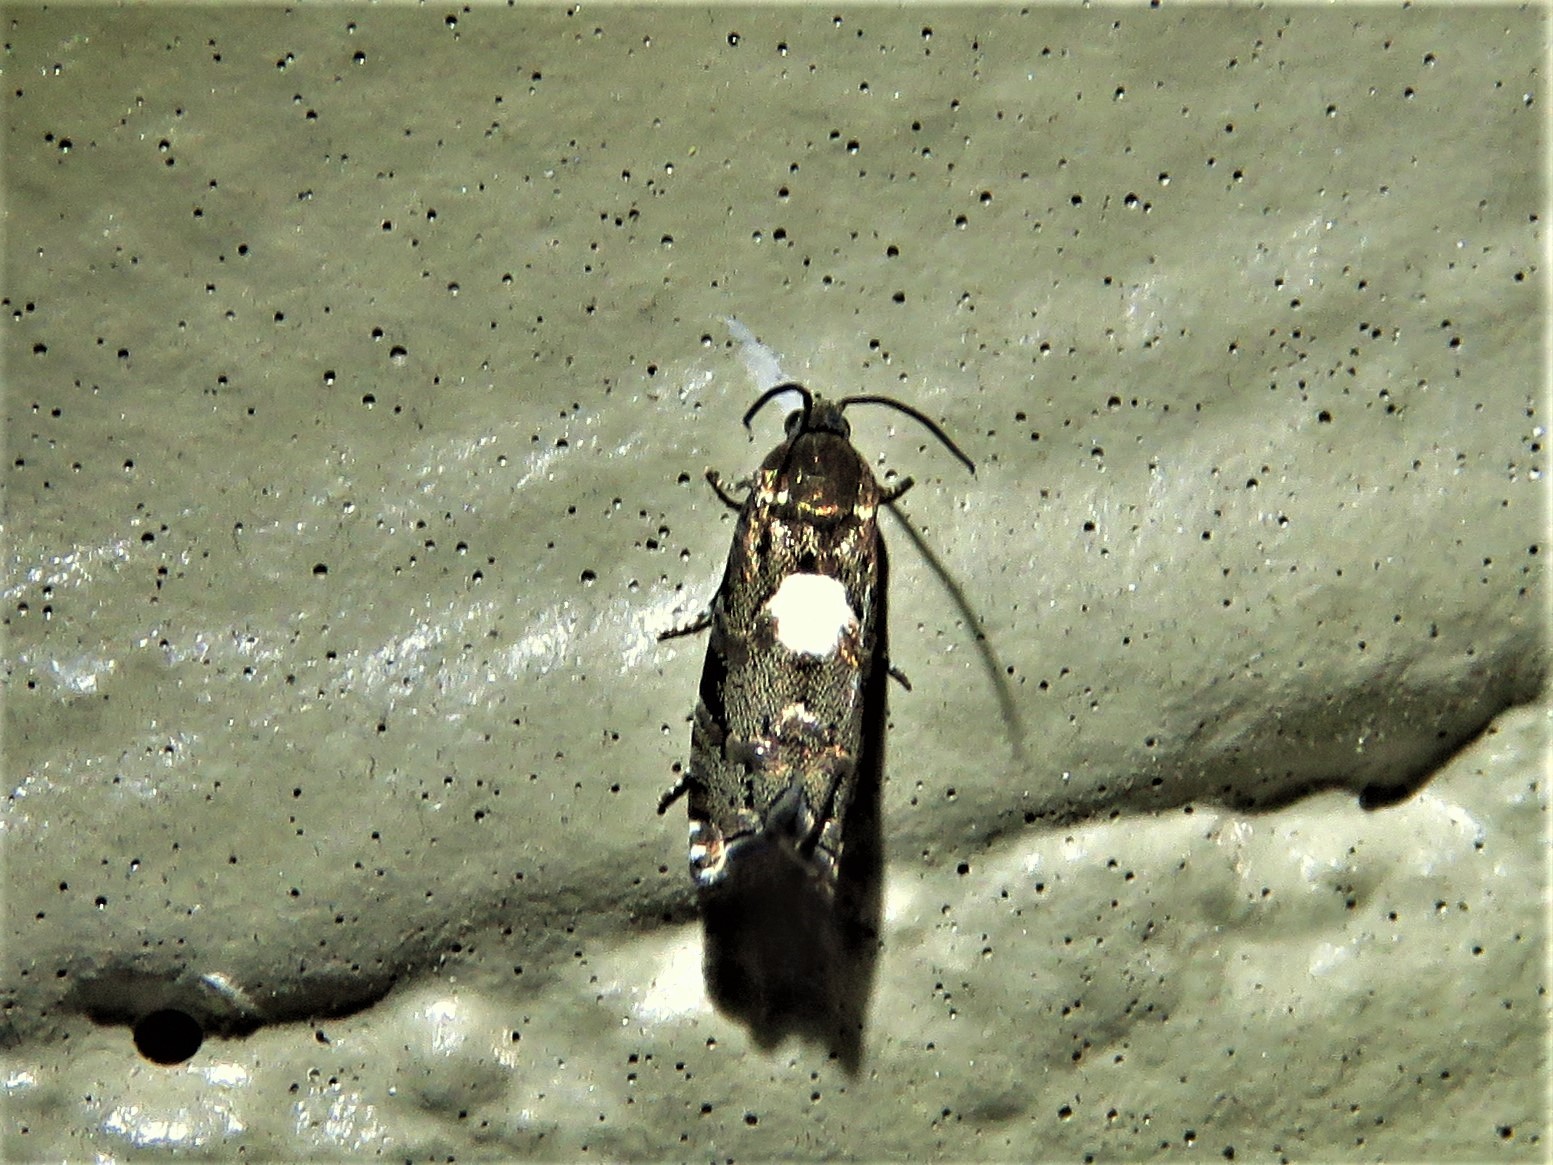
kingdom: Animalia
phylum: Arthropoda
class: Insecta
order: Lepidoptera
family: Tortricidae
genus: Cydia
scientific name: Cydia albimaculana
